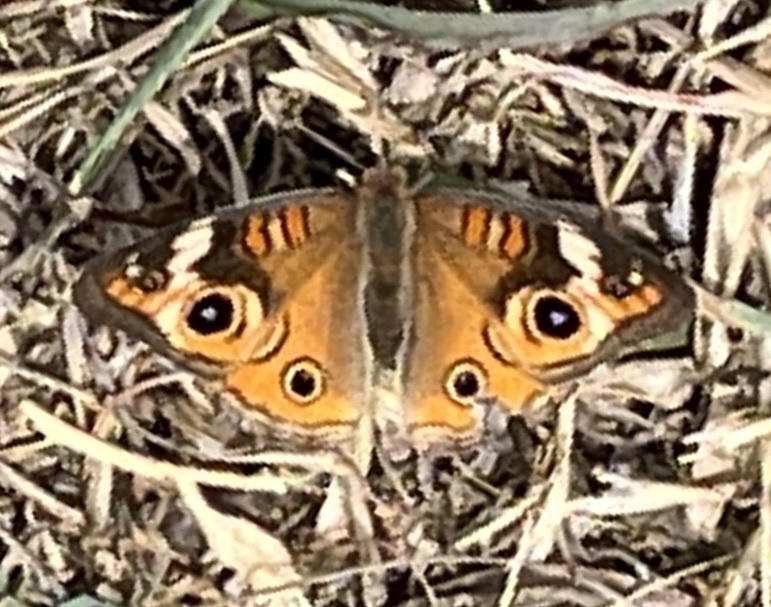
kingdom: Animalia
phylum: Arthropoda
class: Insecta
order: Lepidoptera
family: Nymphalidae
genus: Junonia
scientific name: Junonia coenia
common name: Common buckeye
